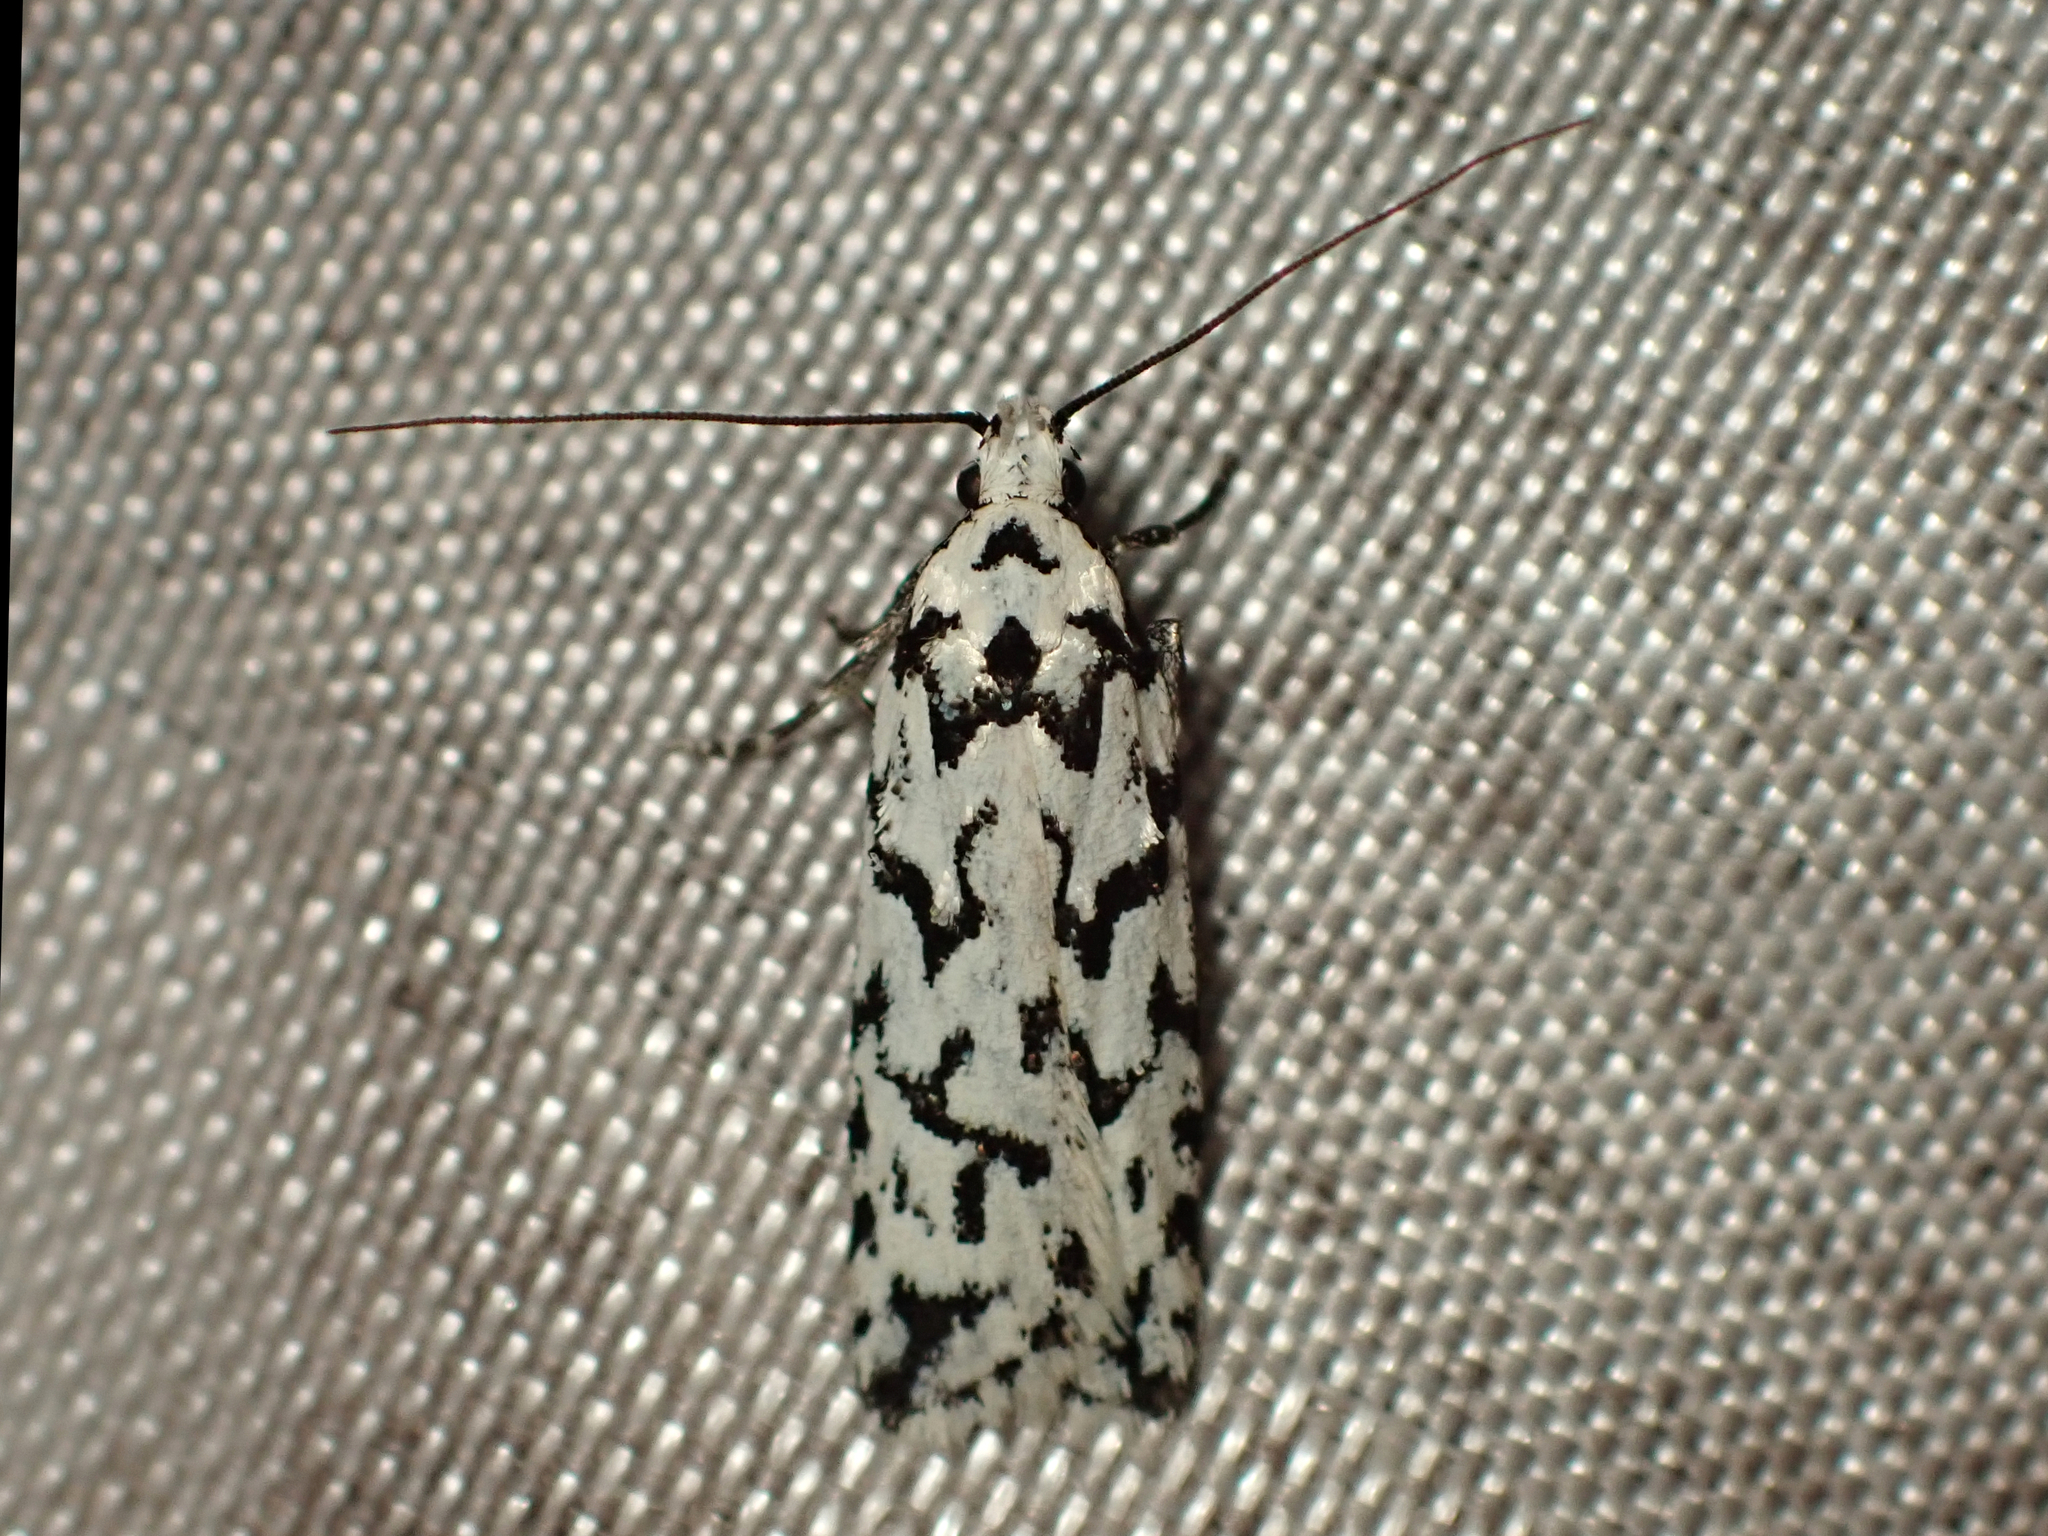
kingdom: Animalia
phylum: Arthropoda
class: Insecta
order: Lepidoptera
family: Oecophoridae
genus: Izatha
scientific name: Izatha katadiktya
